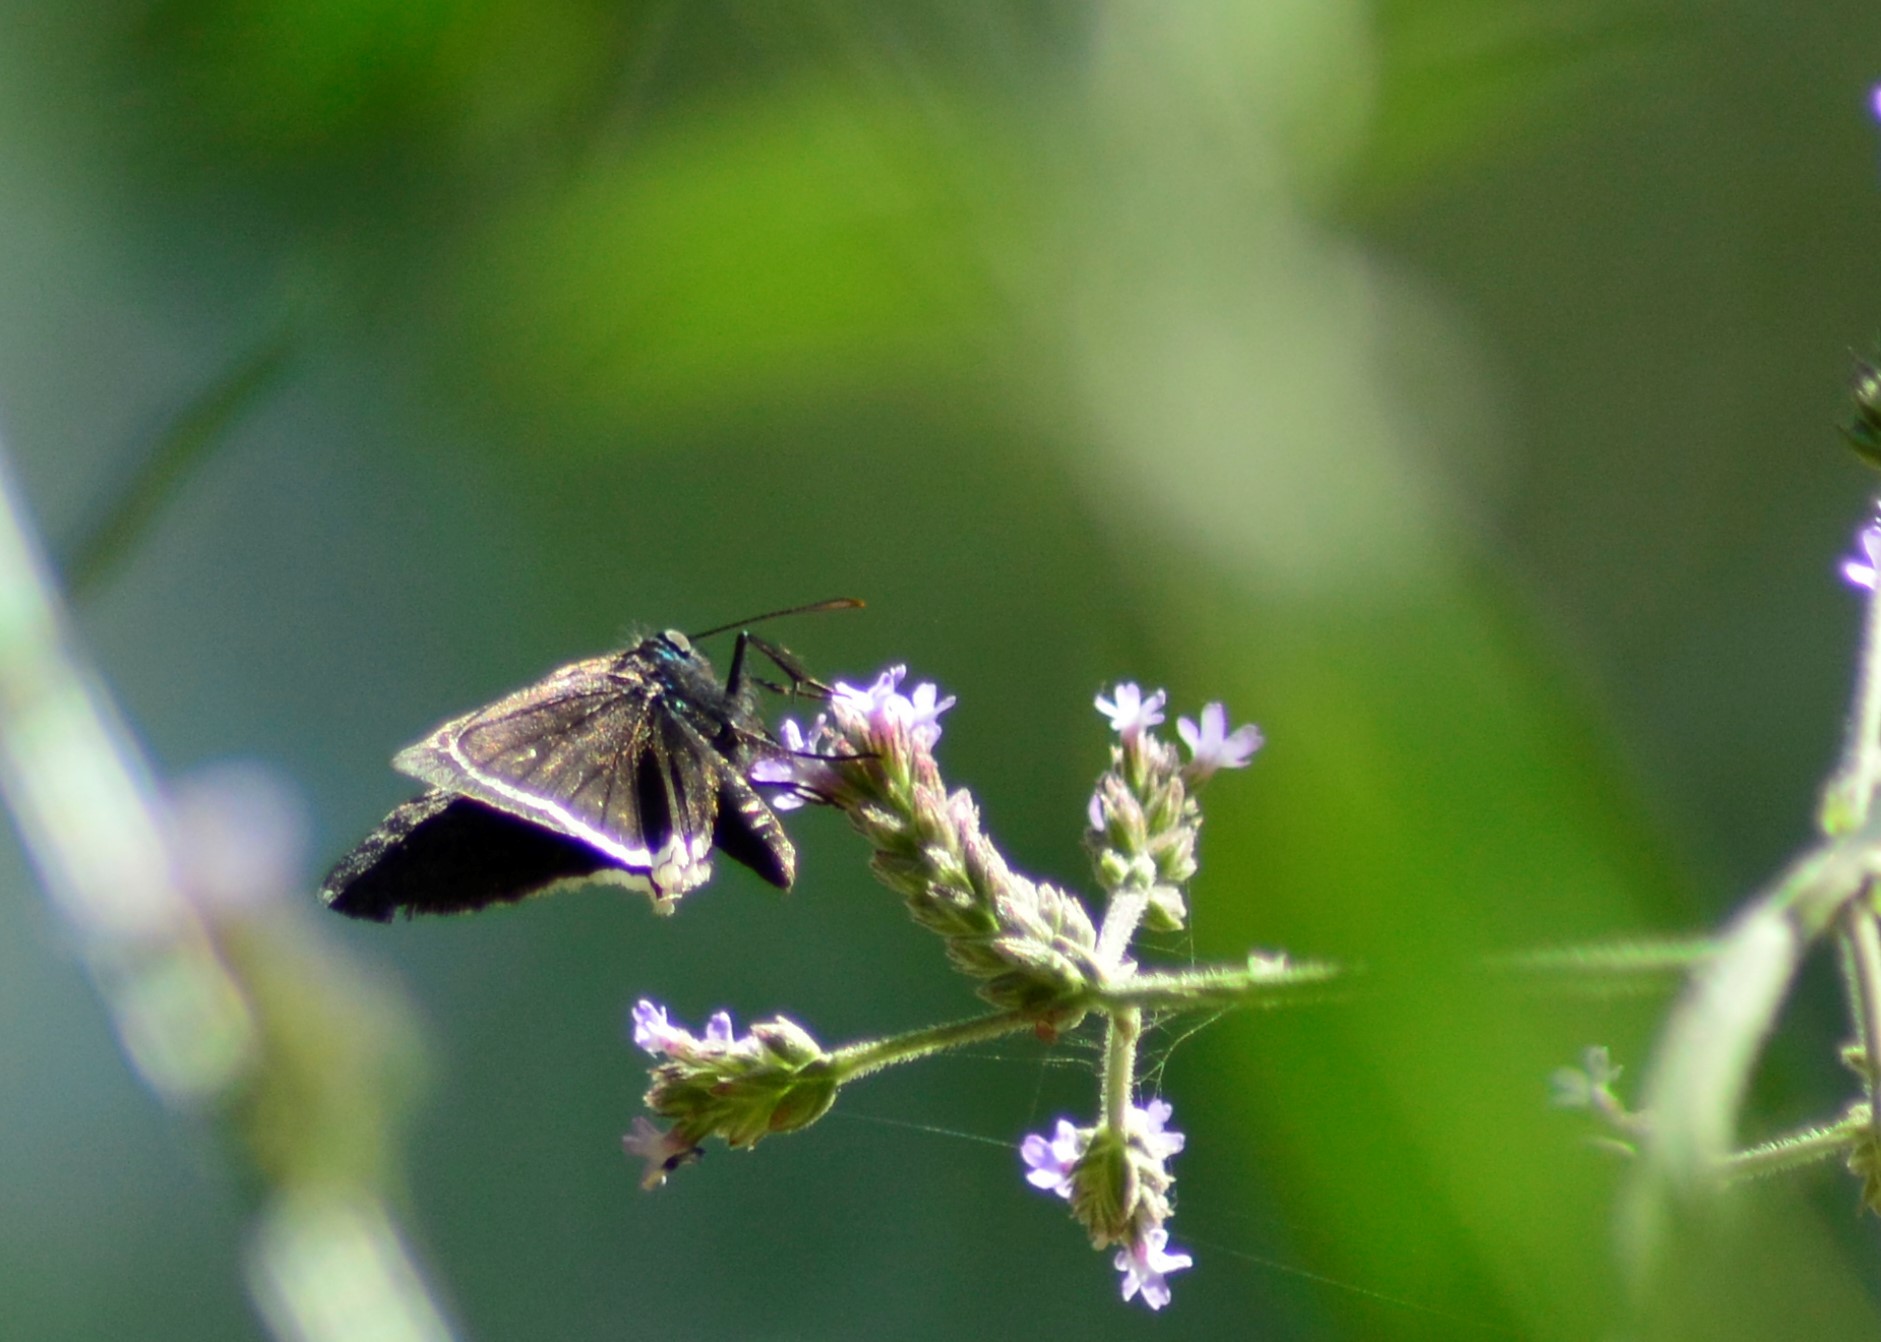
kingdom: Animalia
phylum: Arthropoda
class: Insecta
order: Lepidoptera
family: Hesperiidae
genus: Erynnis
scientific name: Erynnis funeralis
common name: Funereal duskywing
